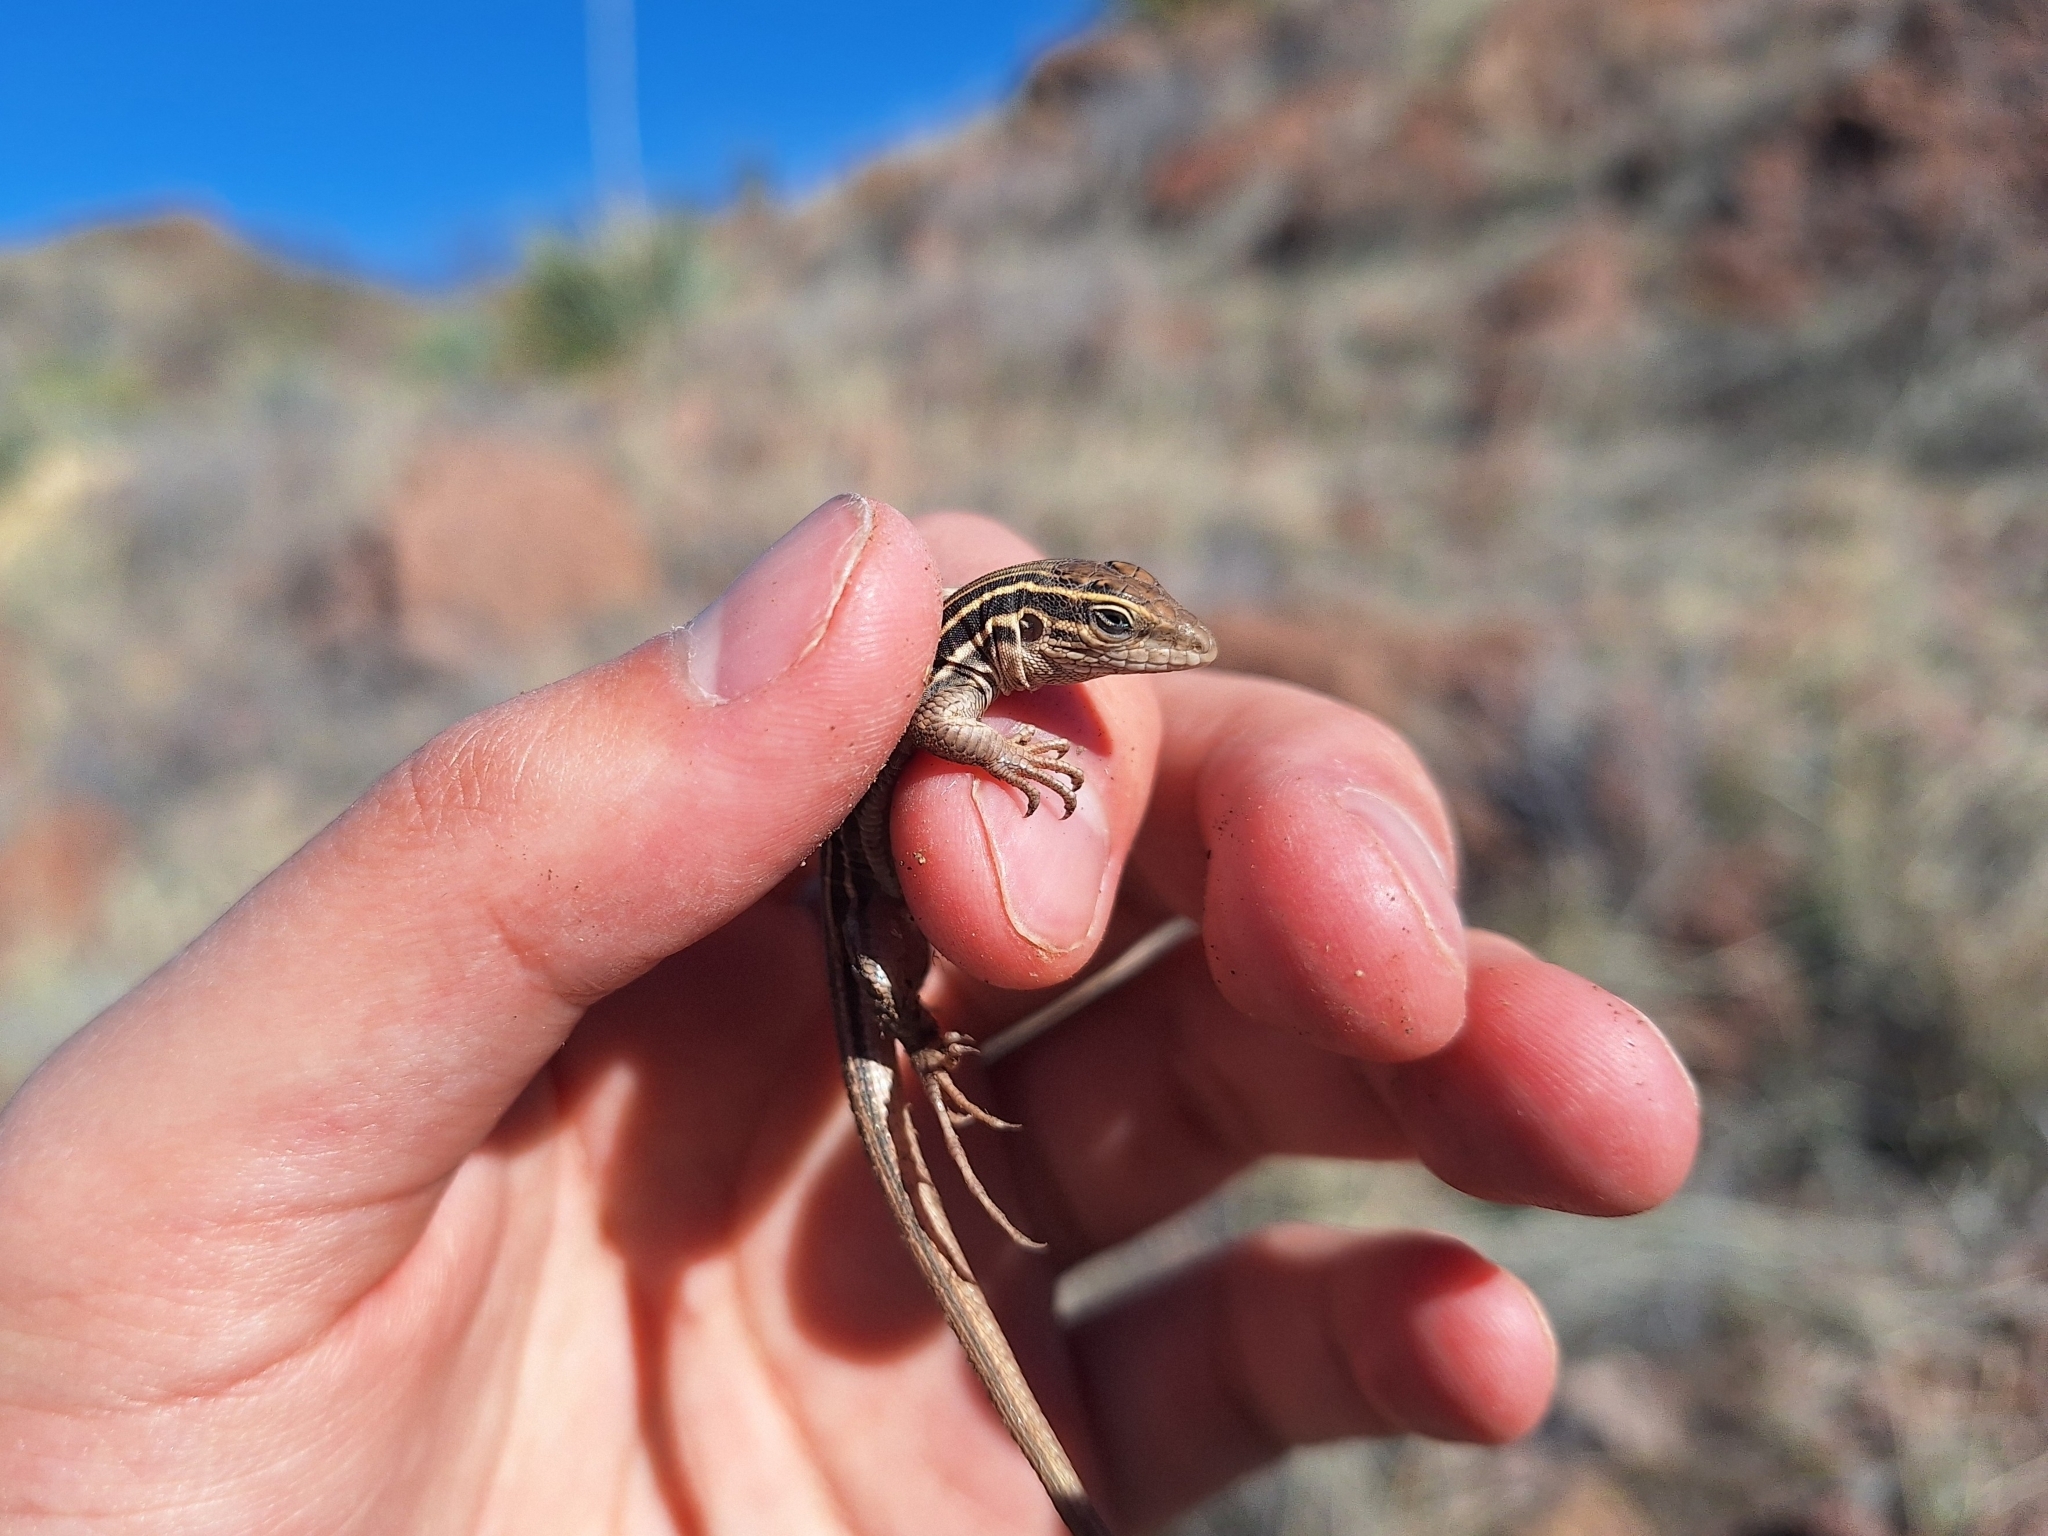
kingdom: Animalia
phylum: Chordata
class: Squamata
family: Teiidae
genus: Aspidoscelis
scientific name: Aspidoscelis uniparens
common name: Desert grassland whiptail
